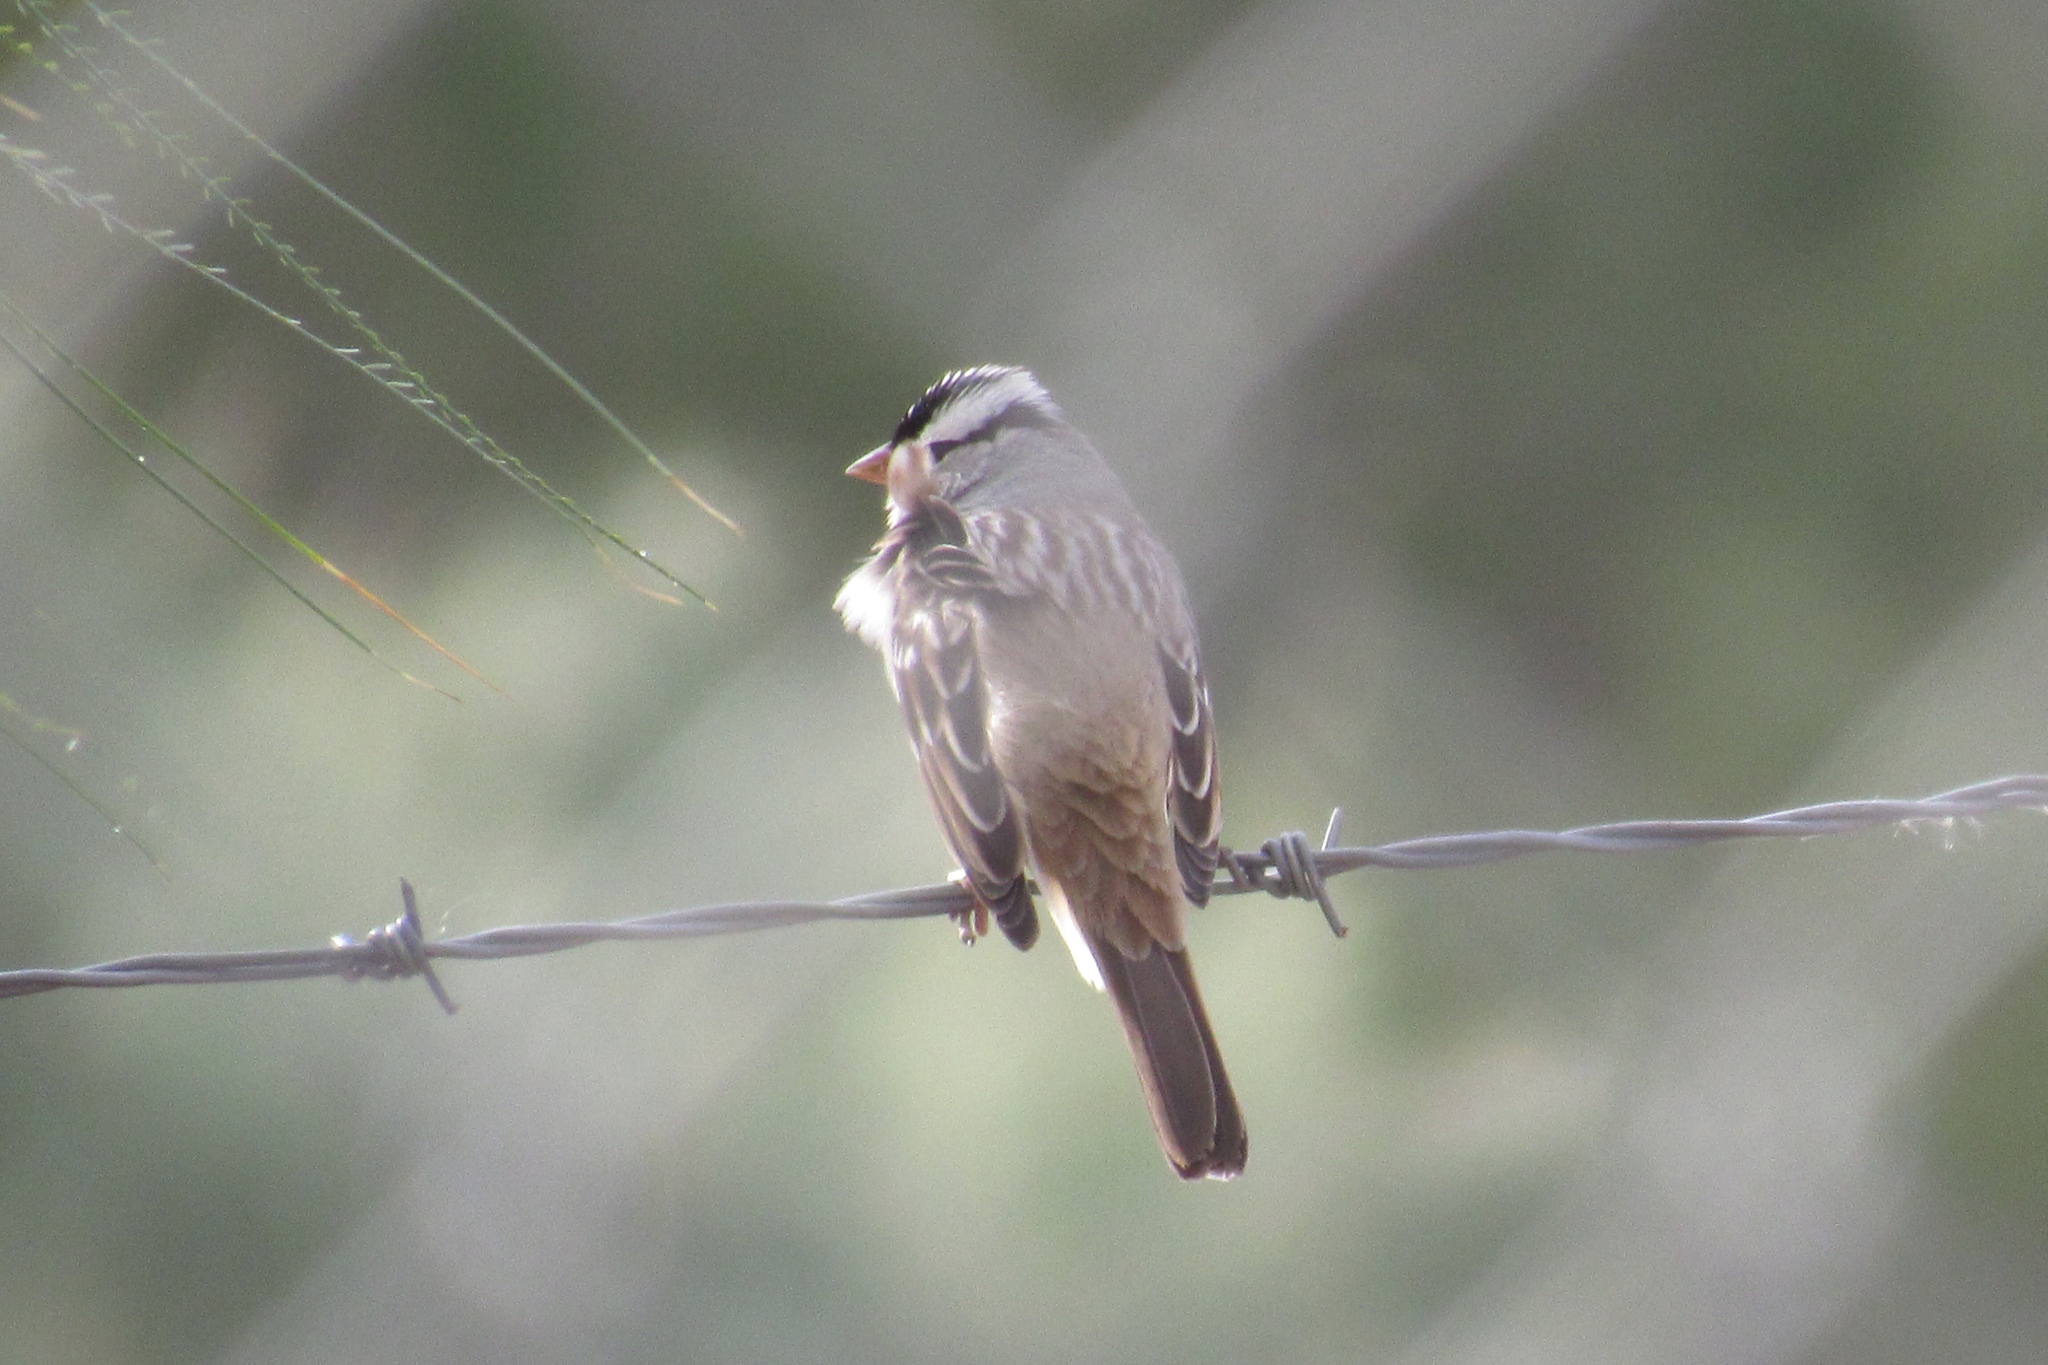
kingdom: Animalia
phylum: Chordata
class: Aves
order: Passeriformes
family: Passerellidae
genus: Zonotrichia
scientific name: Zonotrichia leucophrys
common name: White-crowned sparrow
